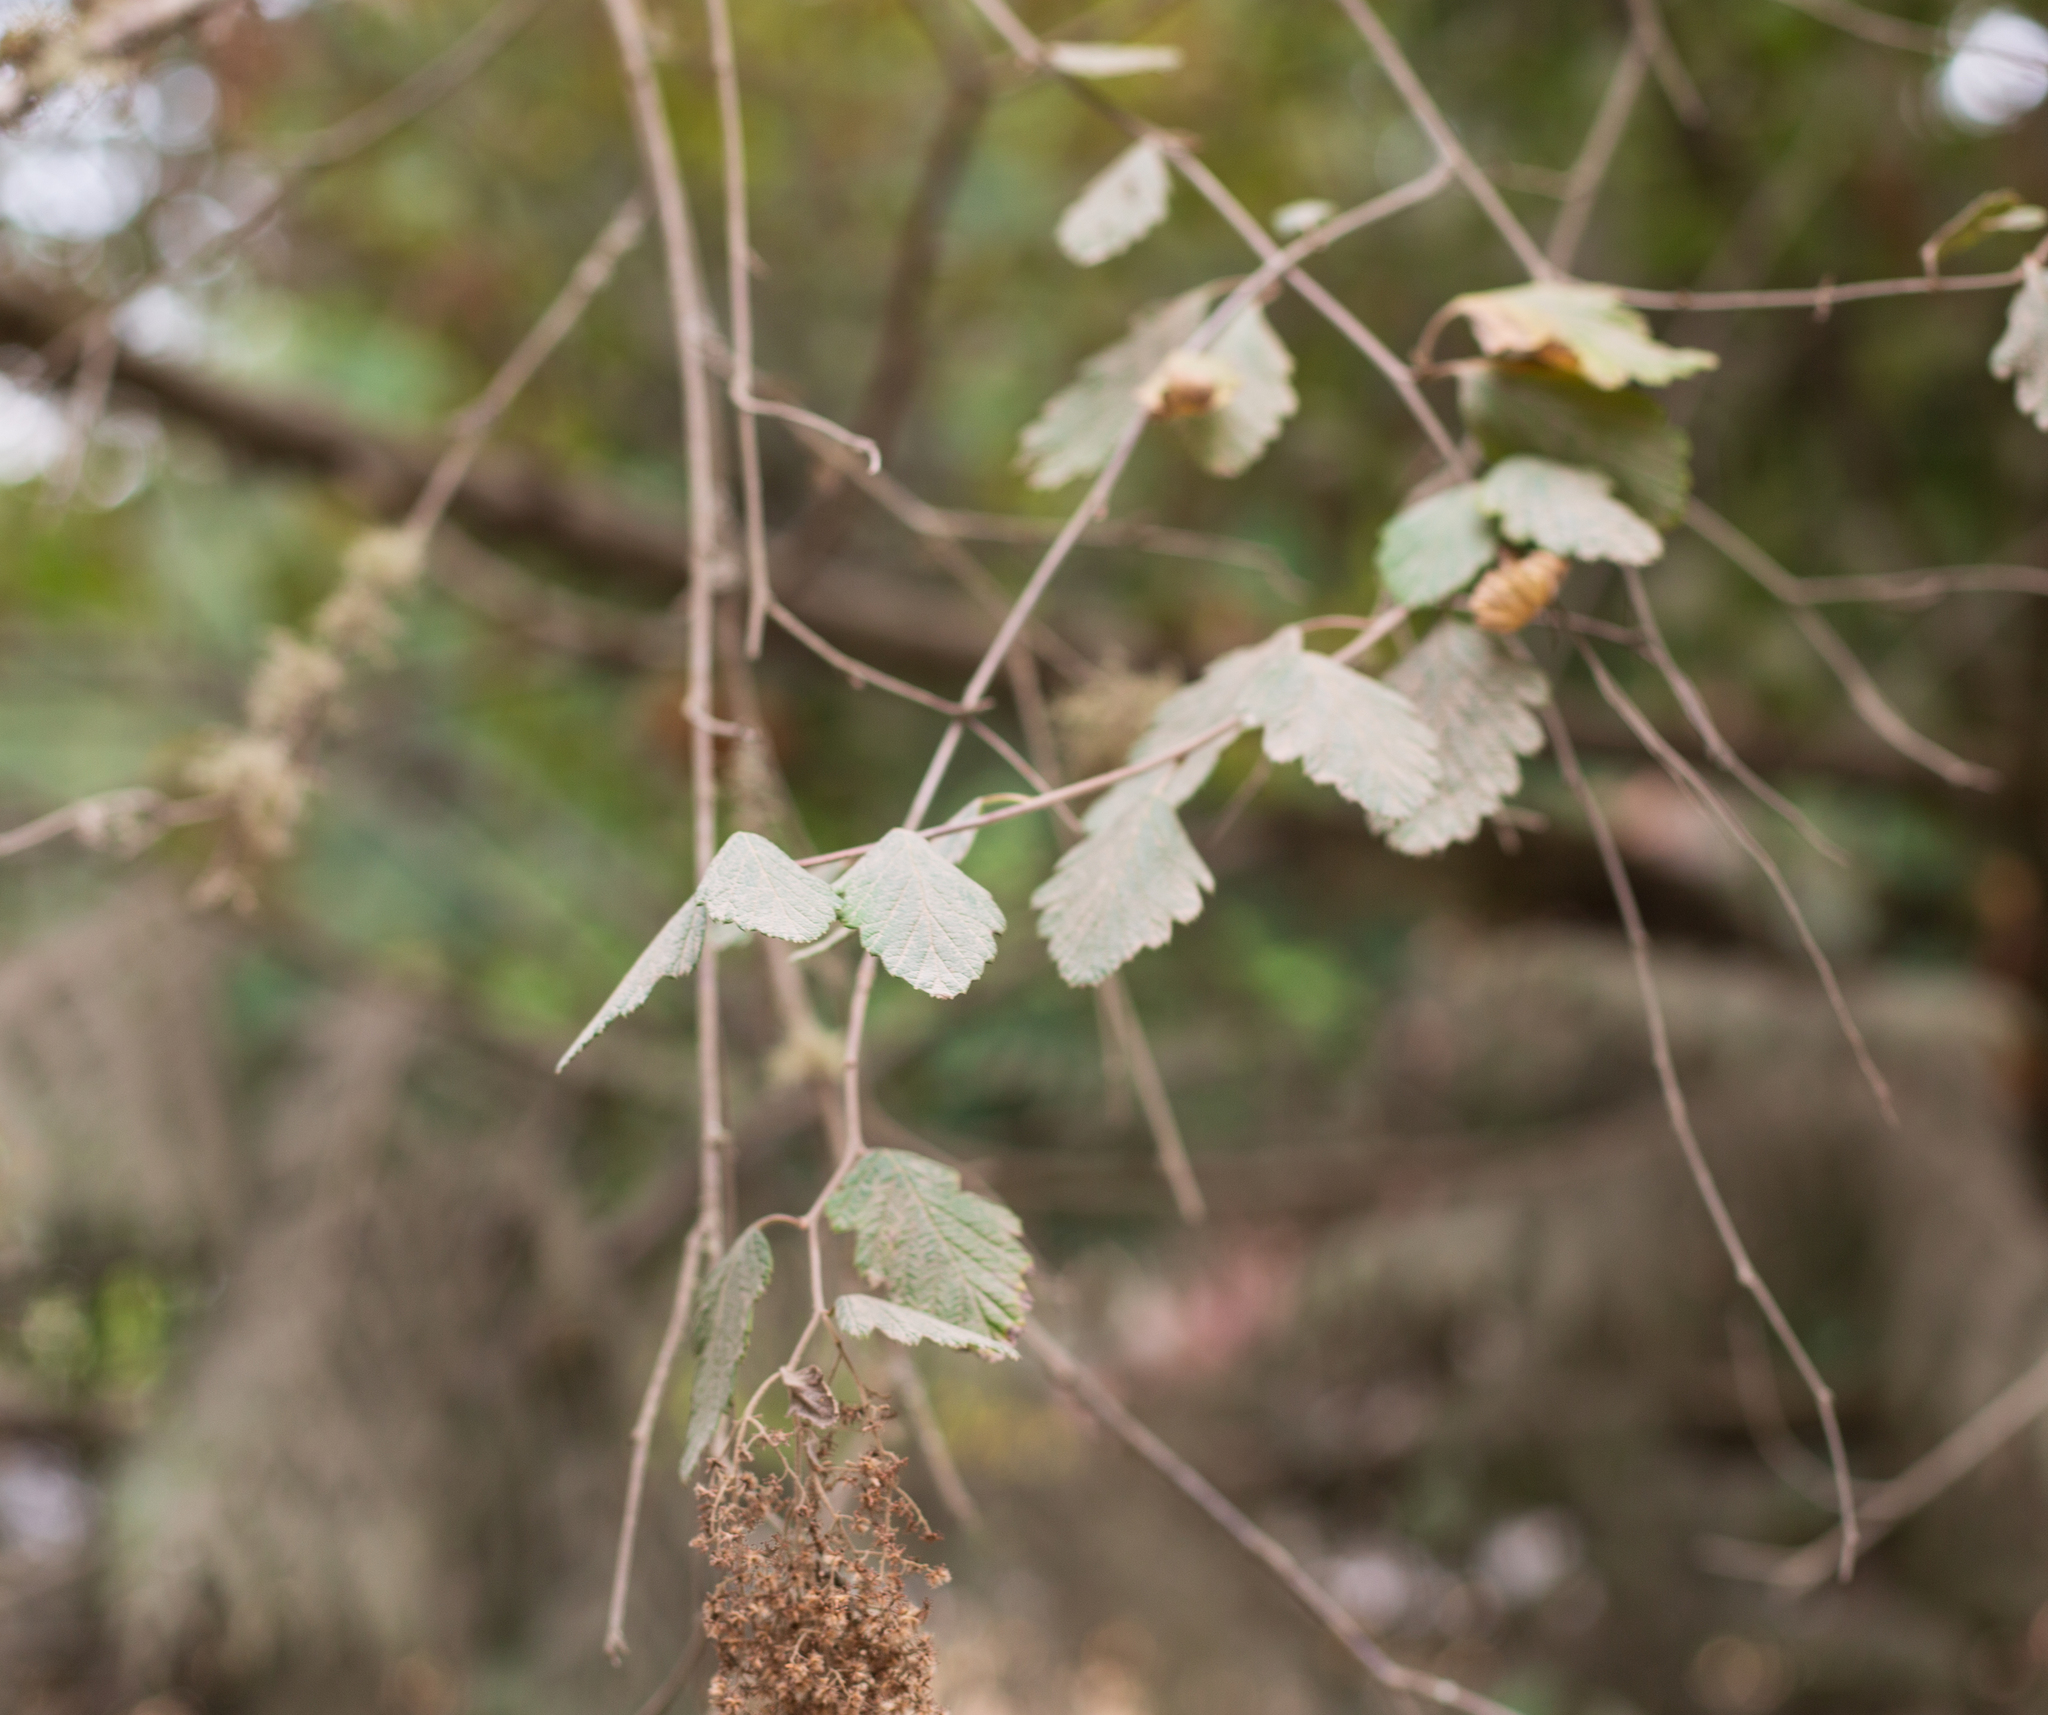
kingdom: Plantae
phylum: Tracheophyta
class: Magnoliopsida
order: Rosales
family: Rosaceae
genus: Holodiscus
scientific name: Holodiscus discolor
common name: Oceanspray
